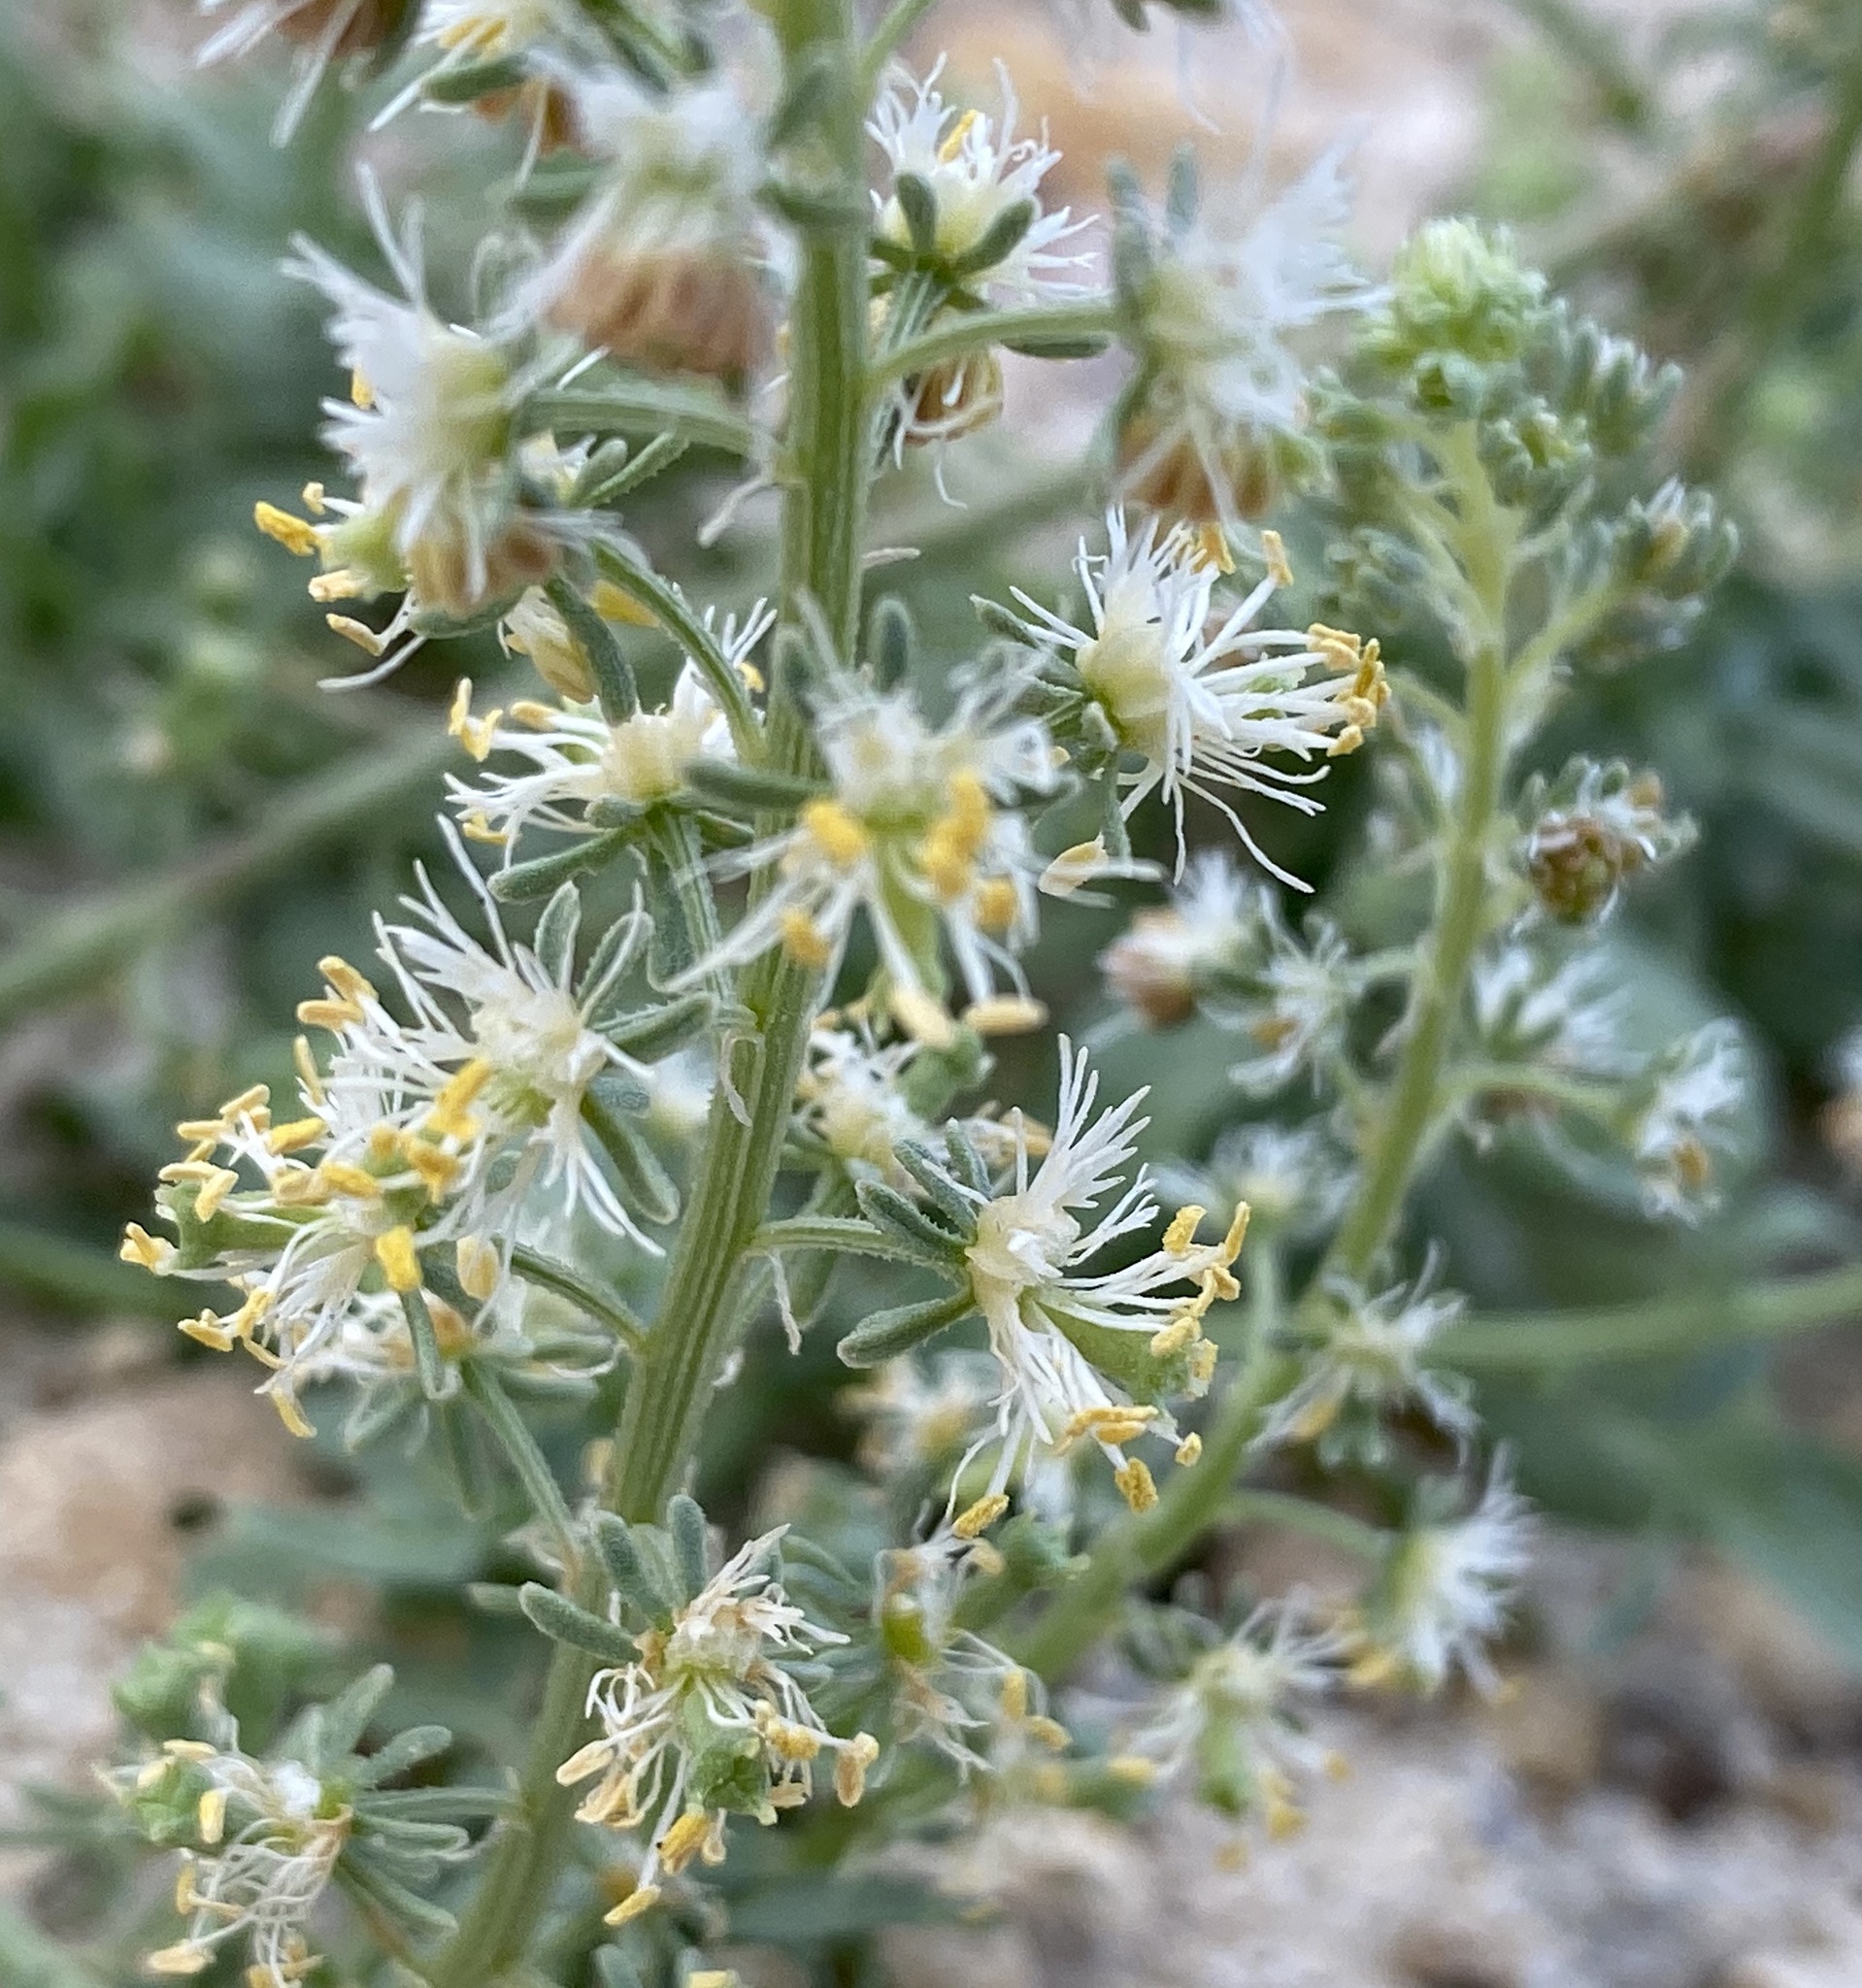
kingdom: Plantae
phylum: Tracheophyta
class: Magnoliopsida
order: Brassicales
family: Resedaceae
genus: Reseda
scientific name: Reseda urnigera
